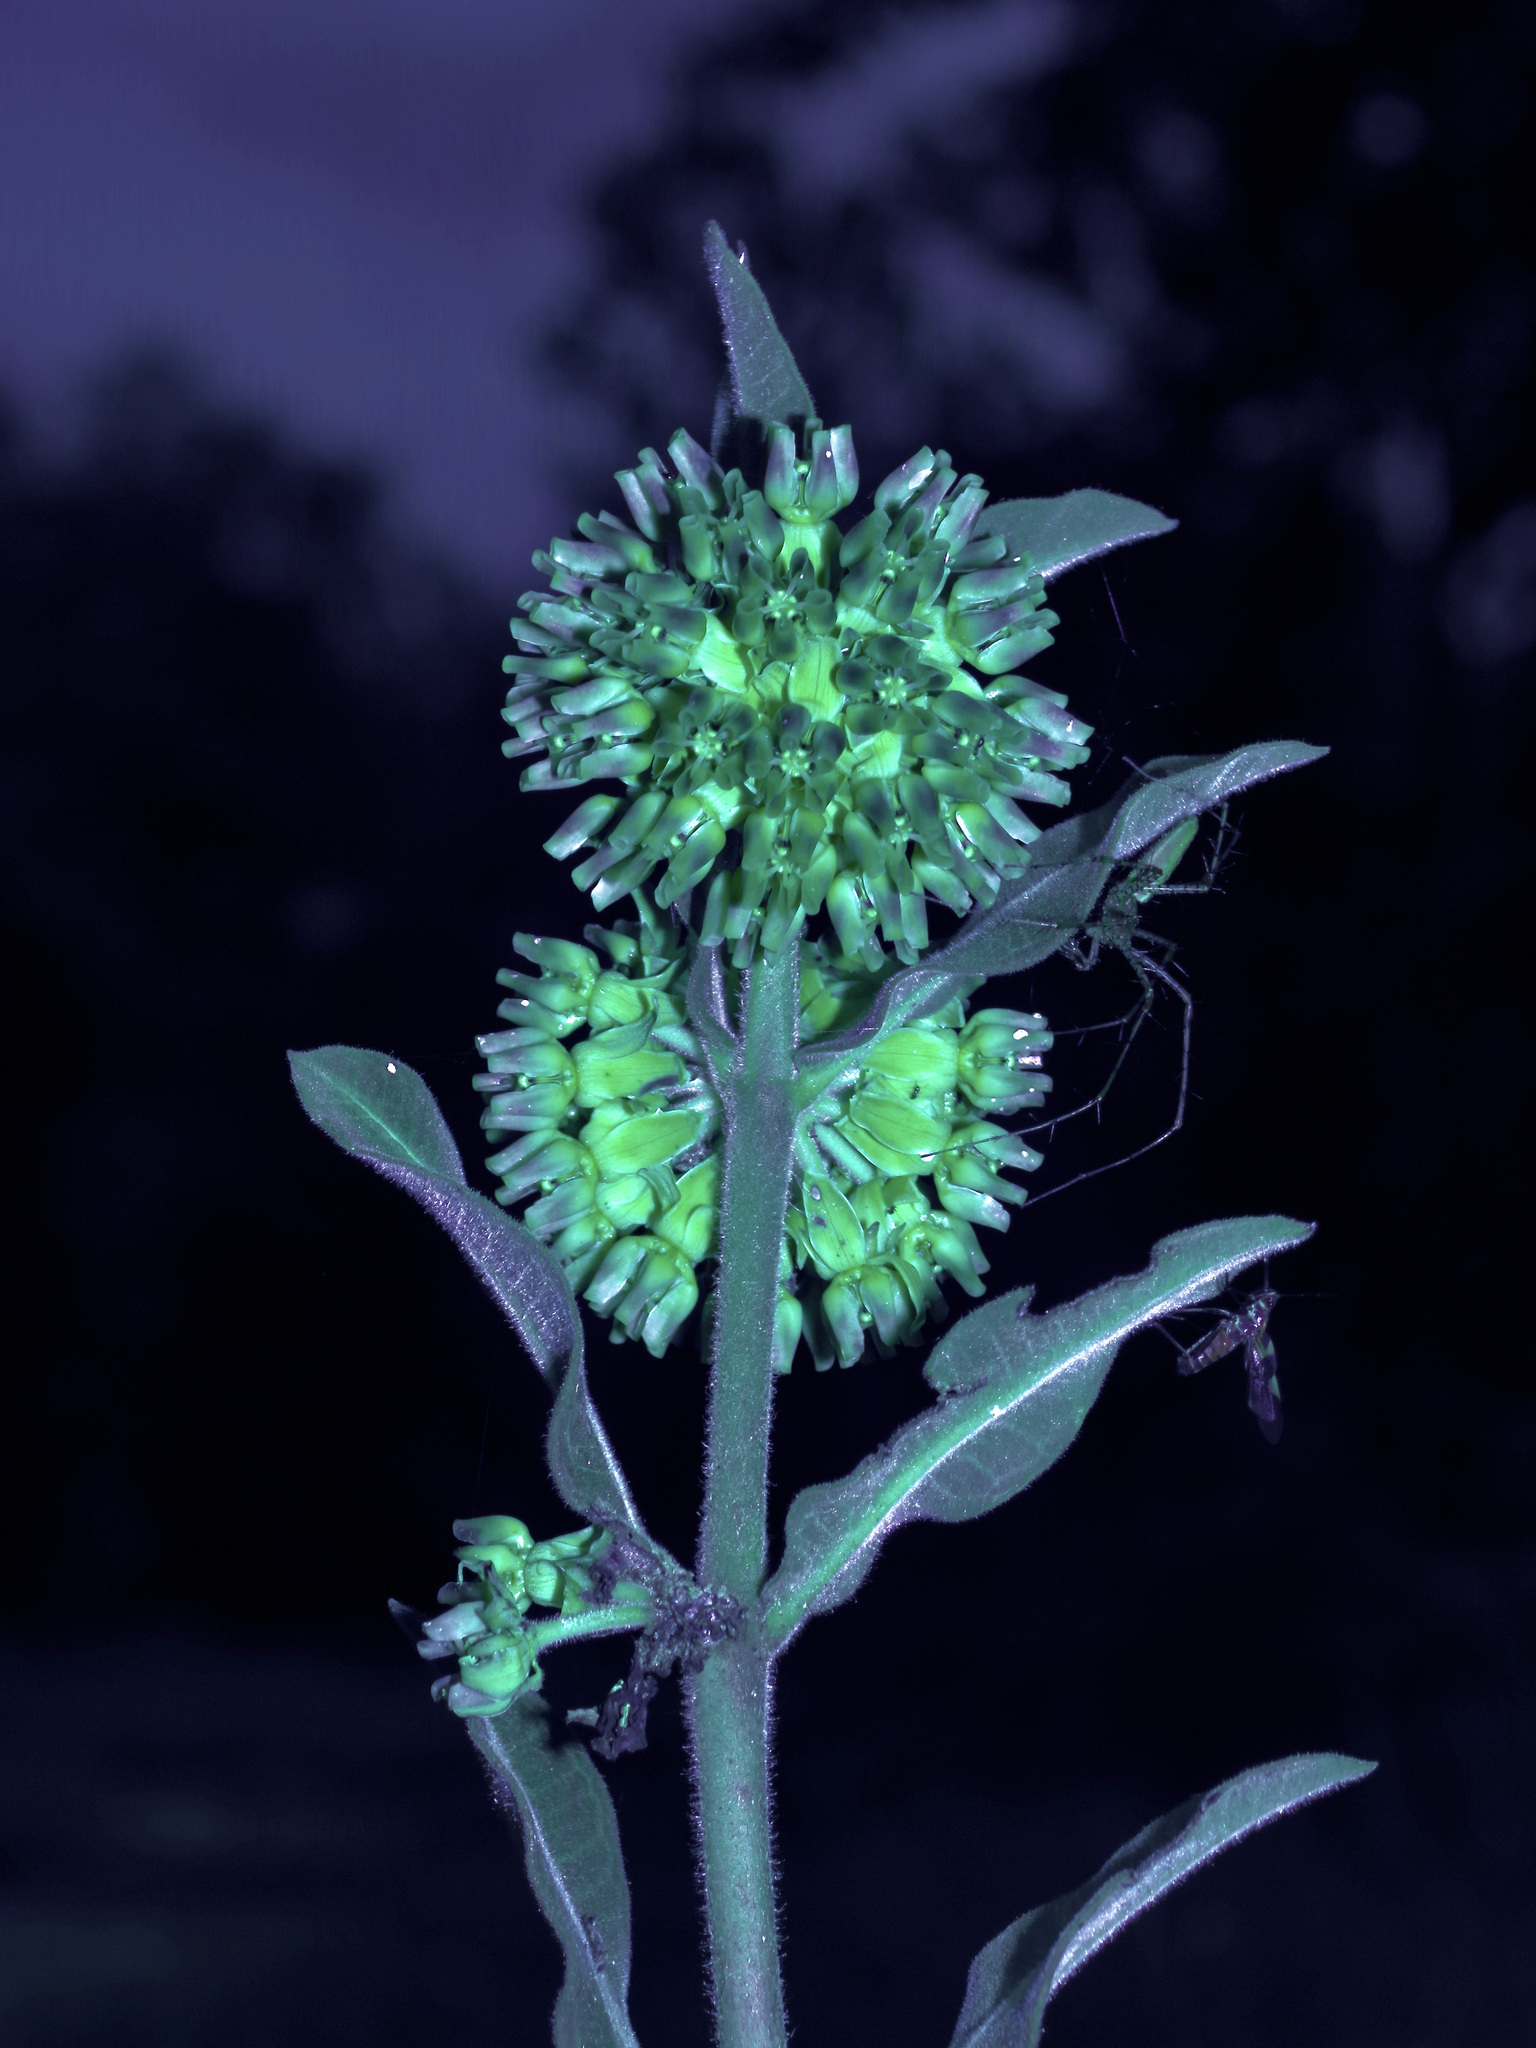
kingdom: Plantae
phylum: Tracheophyta
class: Magnoliopsida
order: Gentianales
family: Apocynaceae
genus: Asclepias
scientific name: Asclepias obovata
